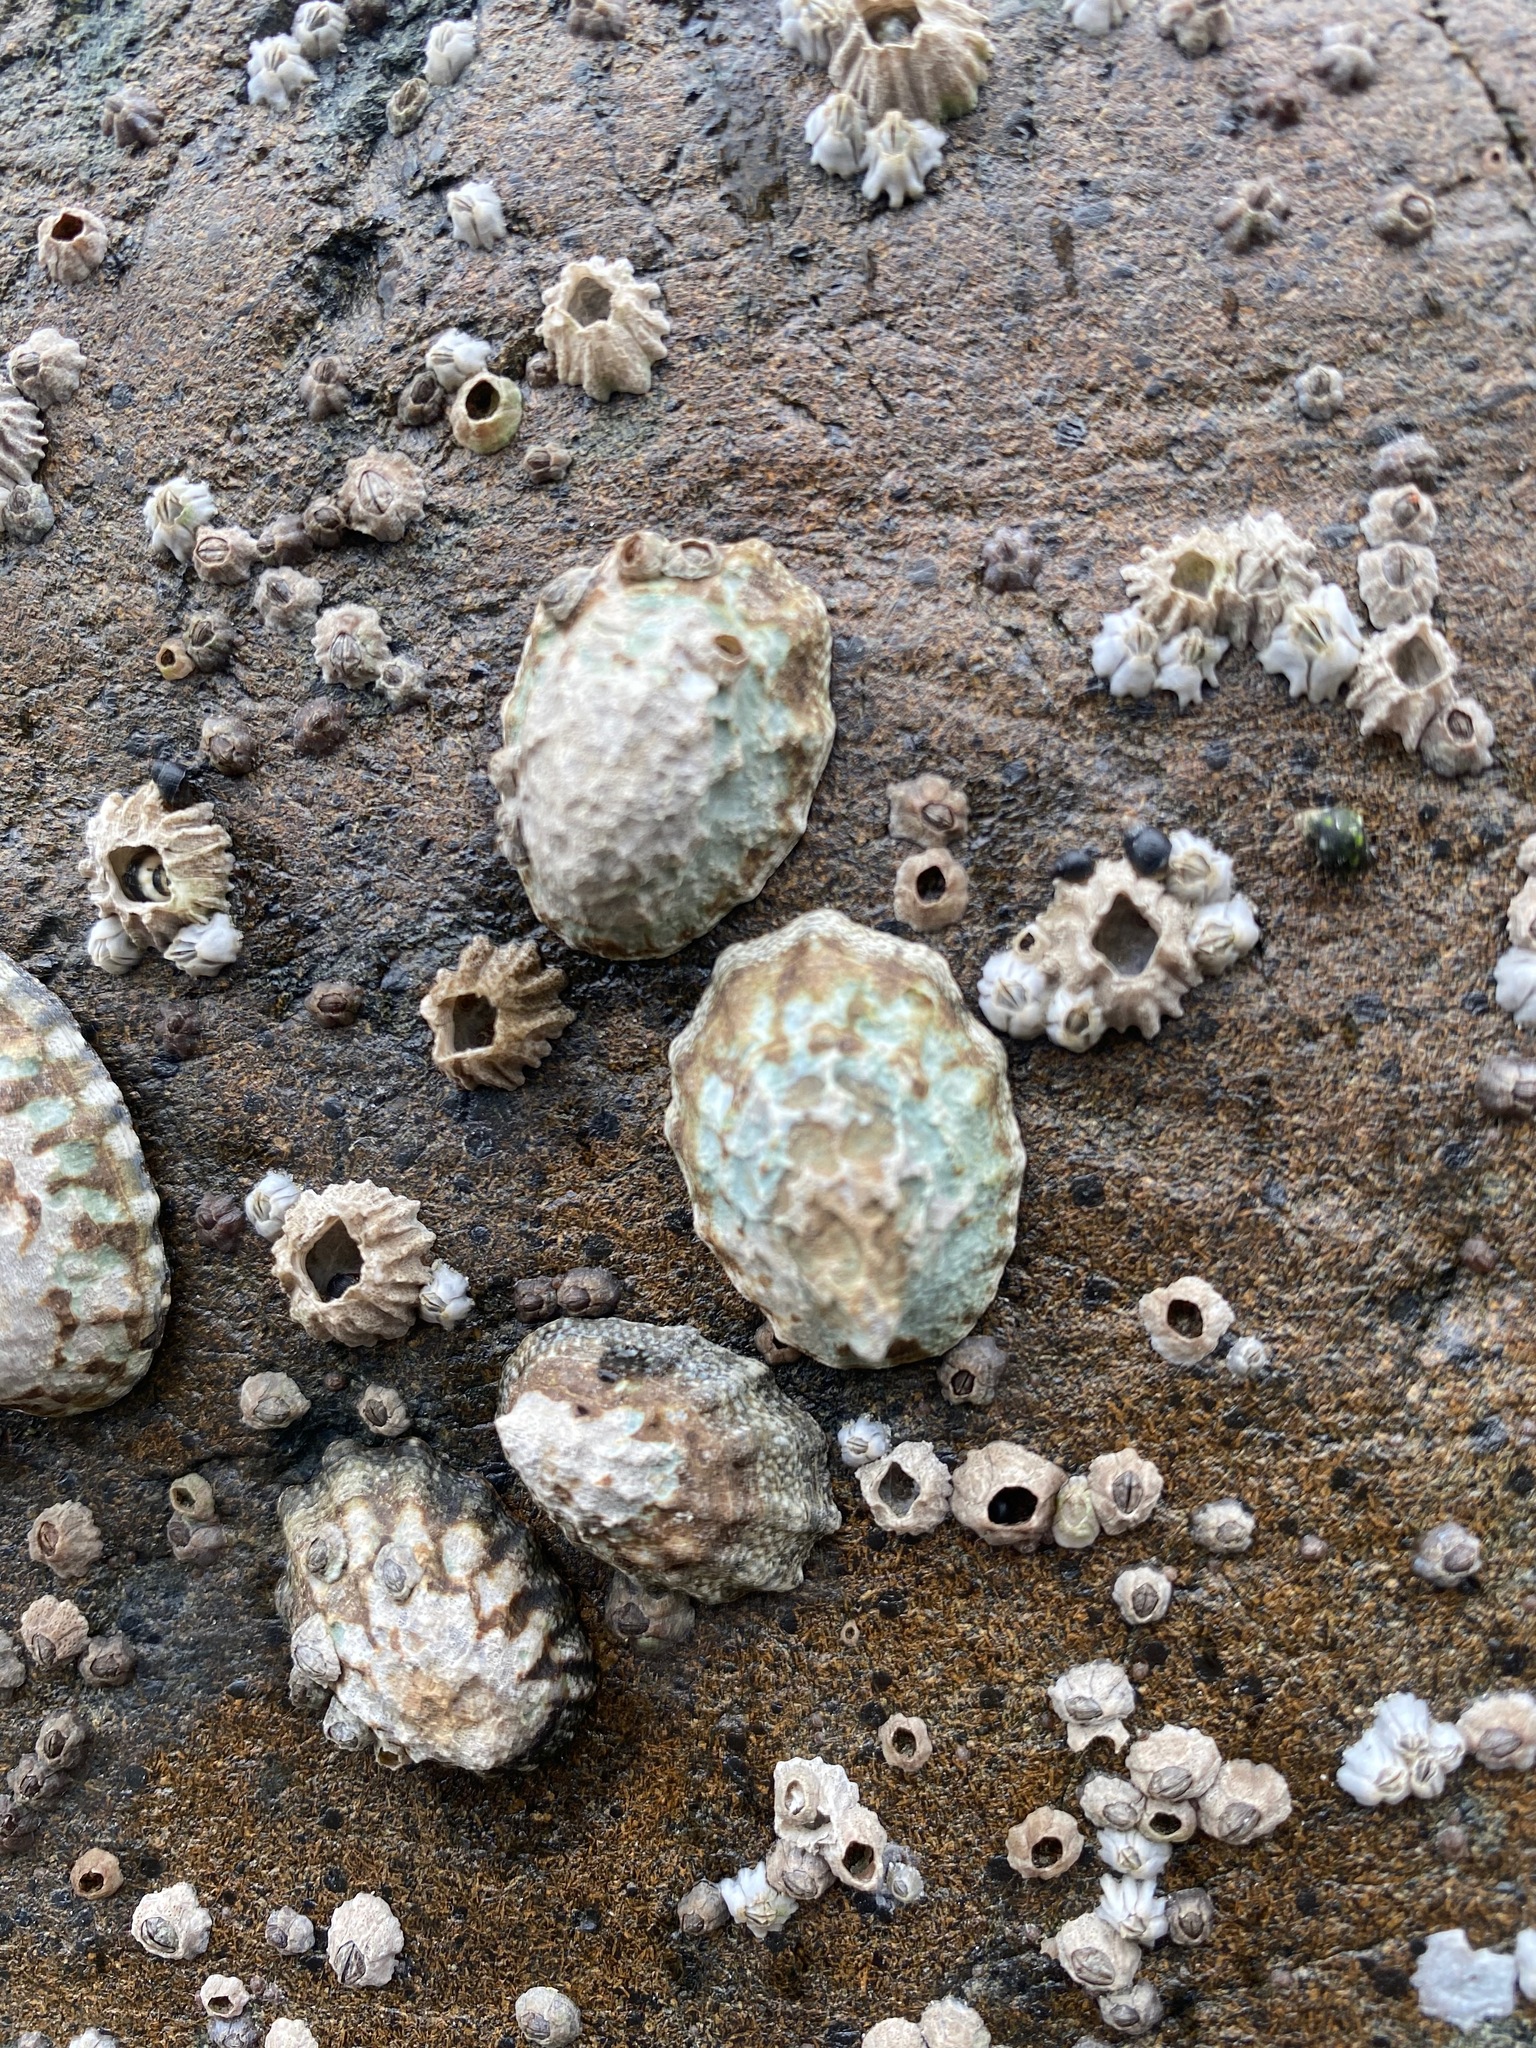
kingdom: Animalia
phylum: Mollusca
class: Gastropoda
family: Lottiidae
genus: Lottia
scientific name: Lottia digitalis
